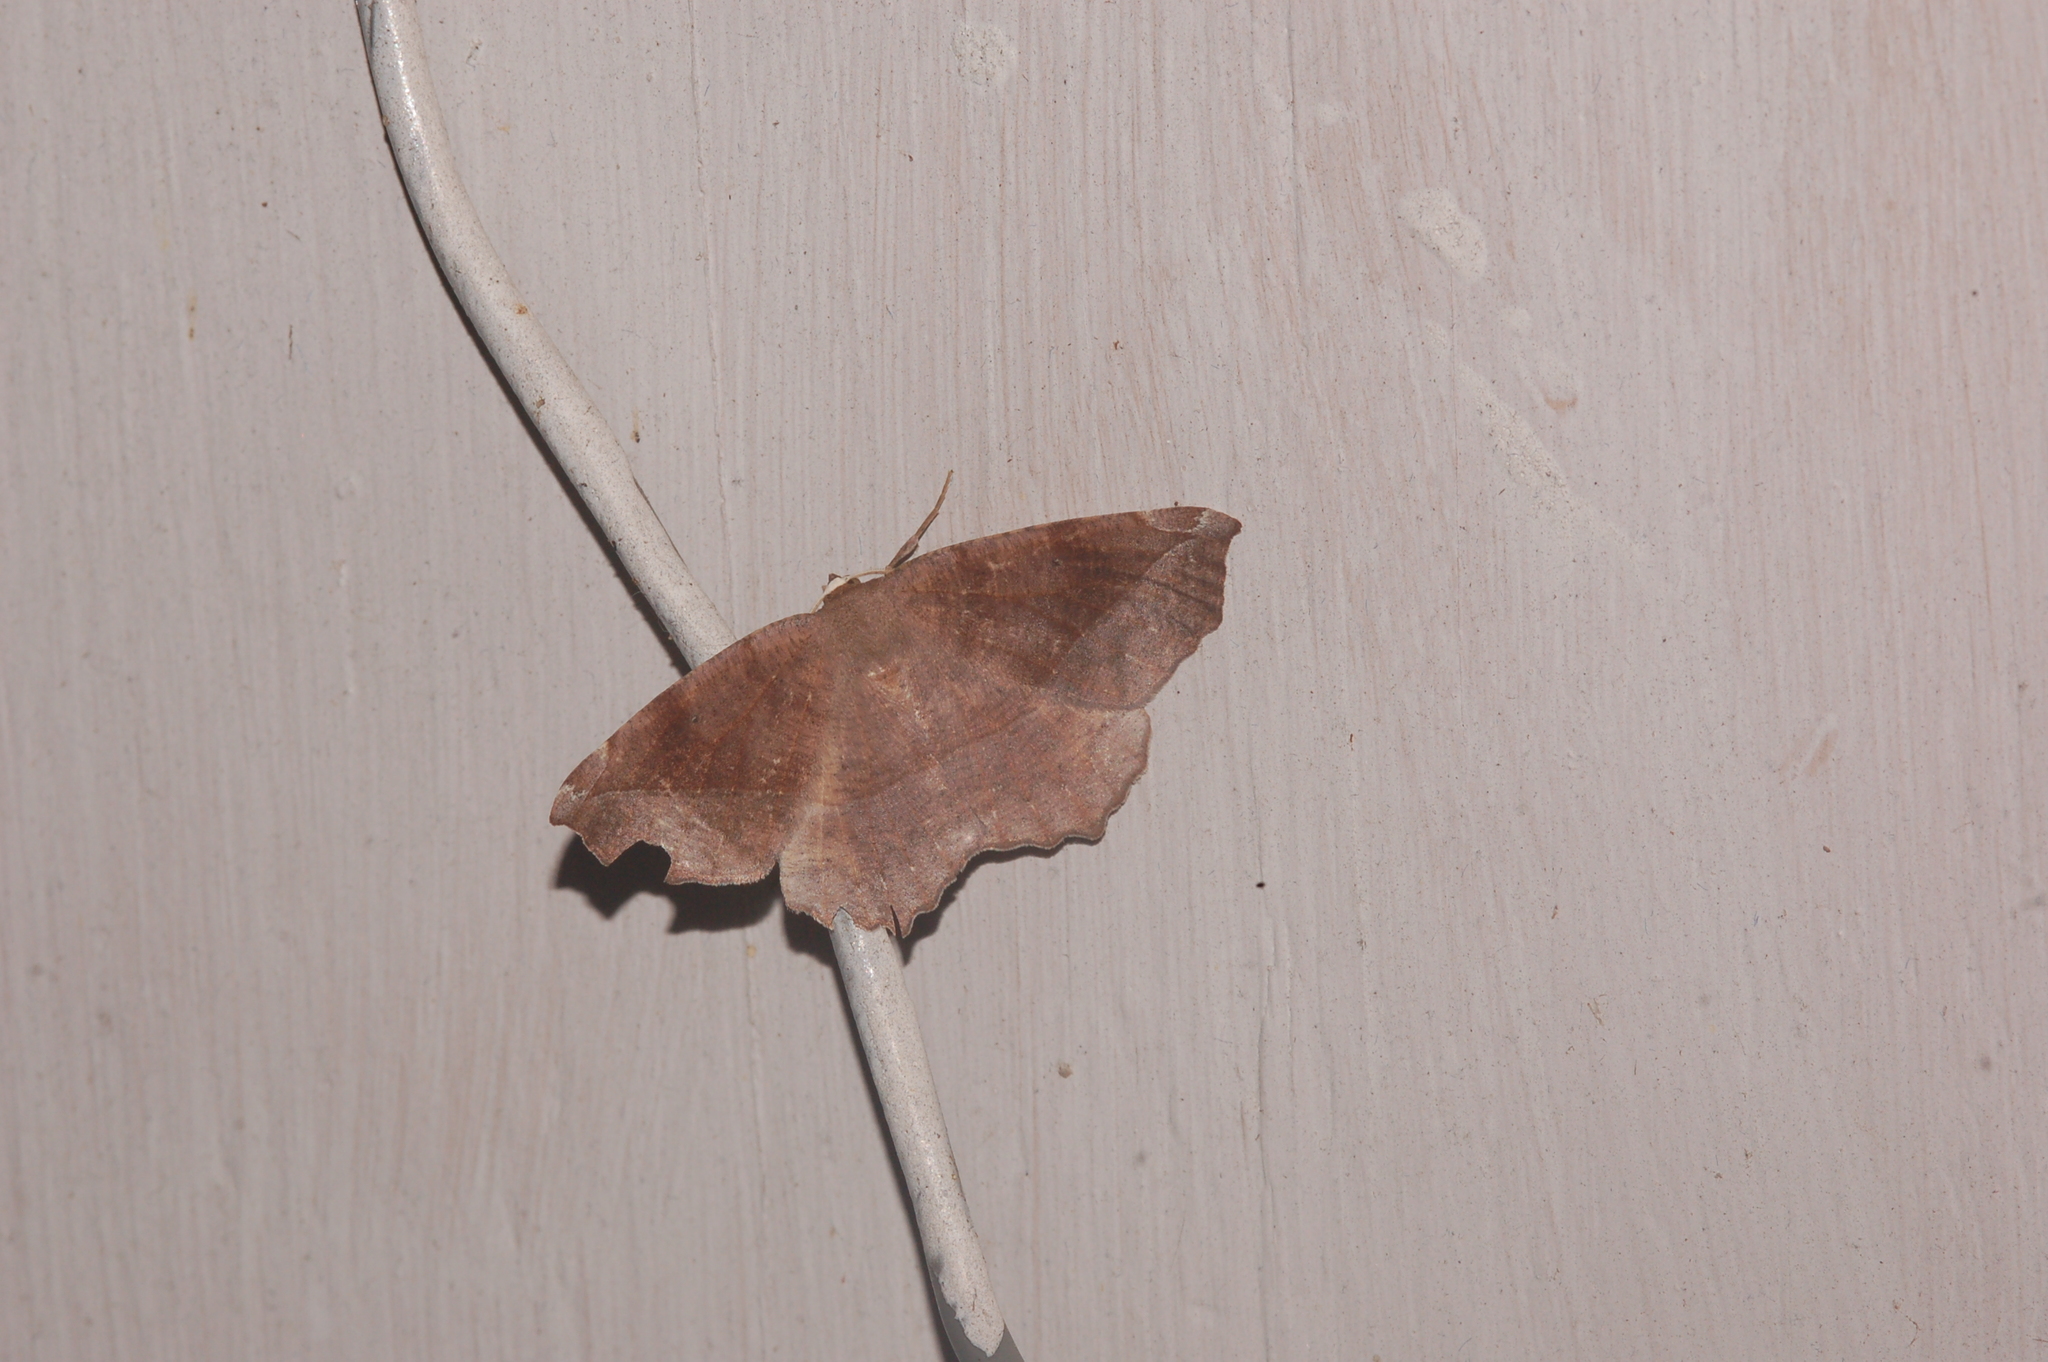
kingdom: Animalia
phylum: Arthropoda
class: Insecta
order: Lepidoptera
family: Geometridae
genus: Eutrapela
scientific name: Eutrapela clemataria
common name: Curved-toothed geometer
